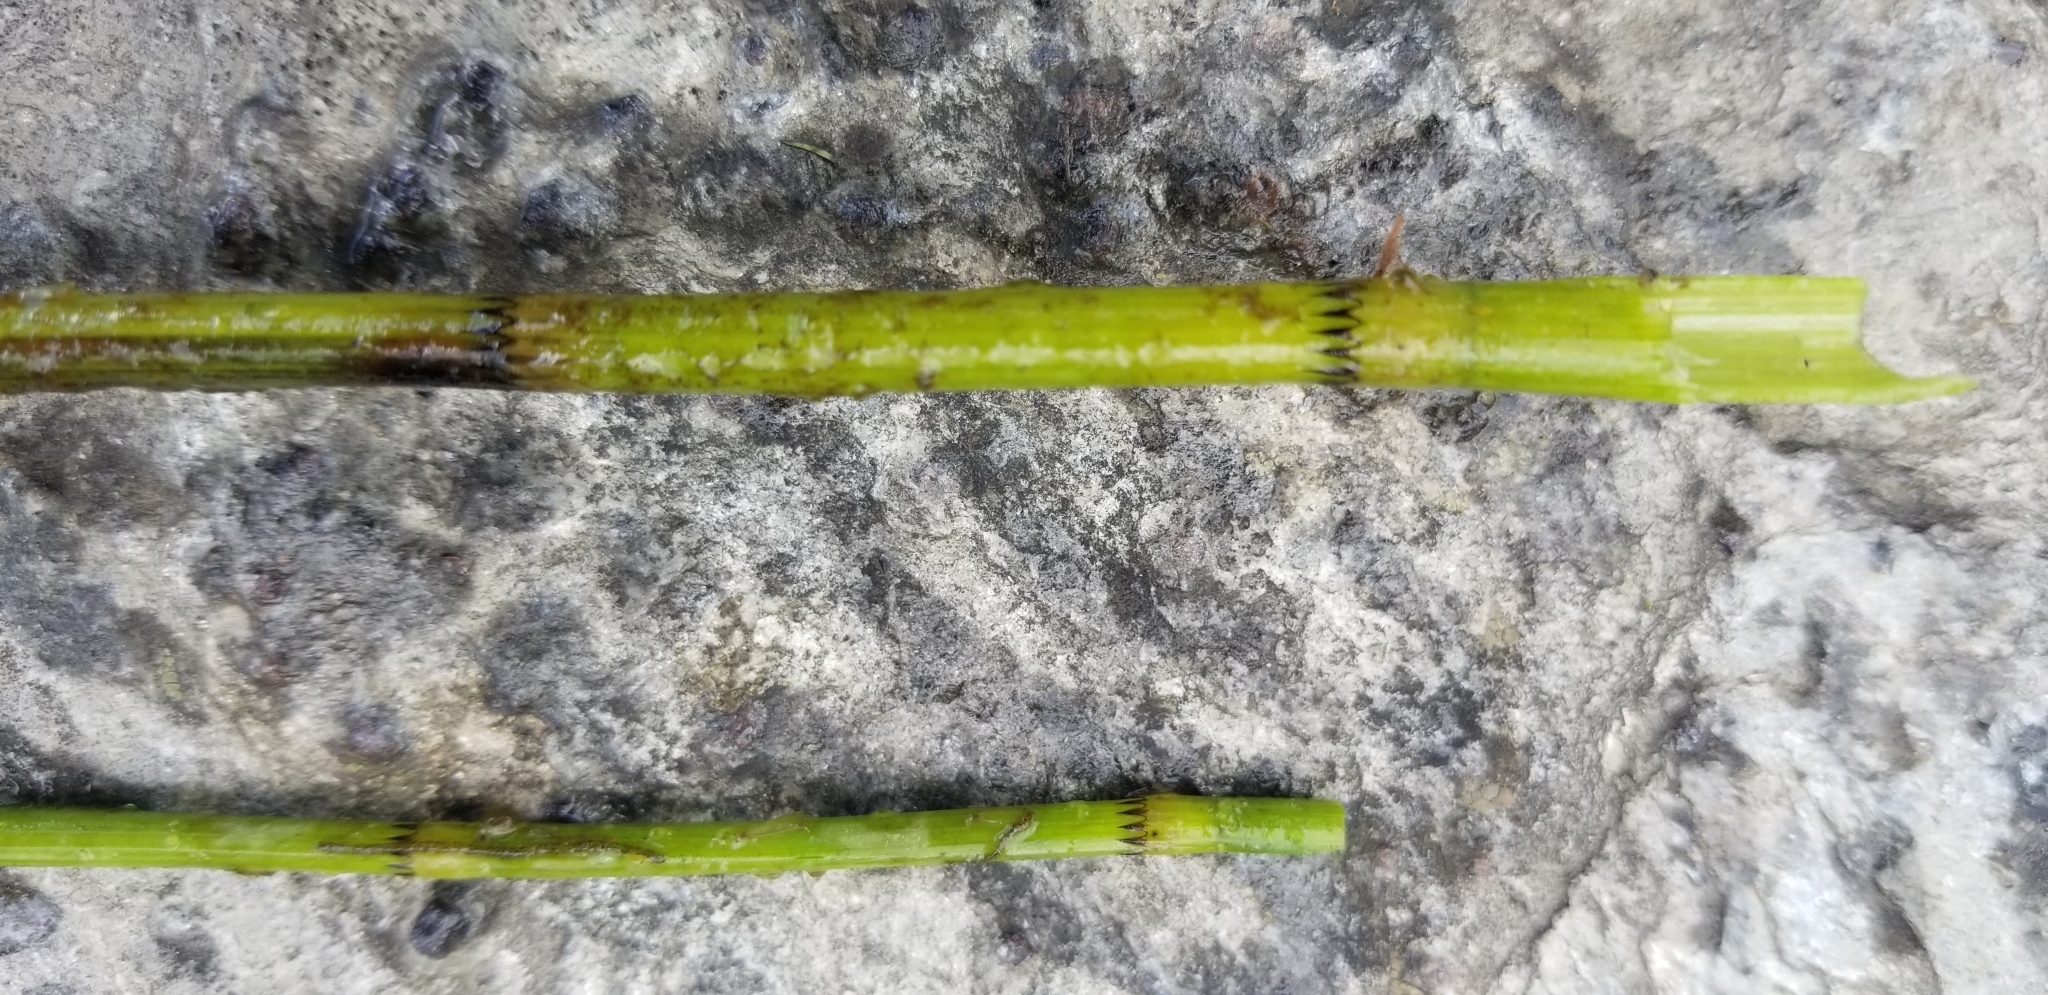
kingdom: Plantae
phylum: Tracheophyta
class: Polypodiopsida
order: Equisetales
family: Equisetaceae
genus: Equisetum
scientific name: Equisetum fluviatile
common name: Water horsetail
